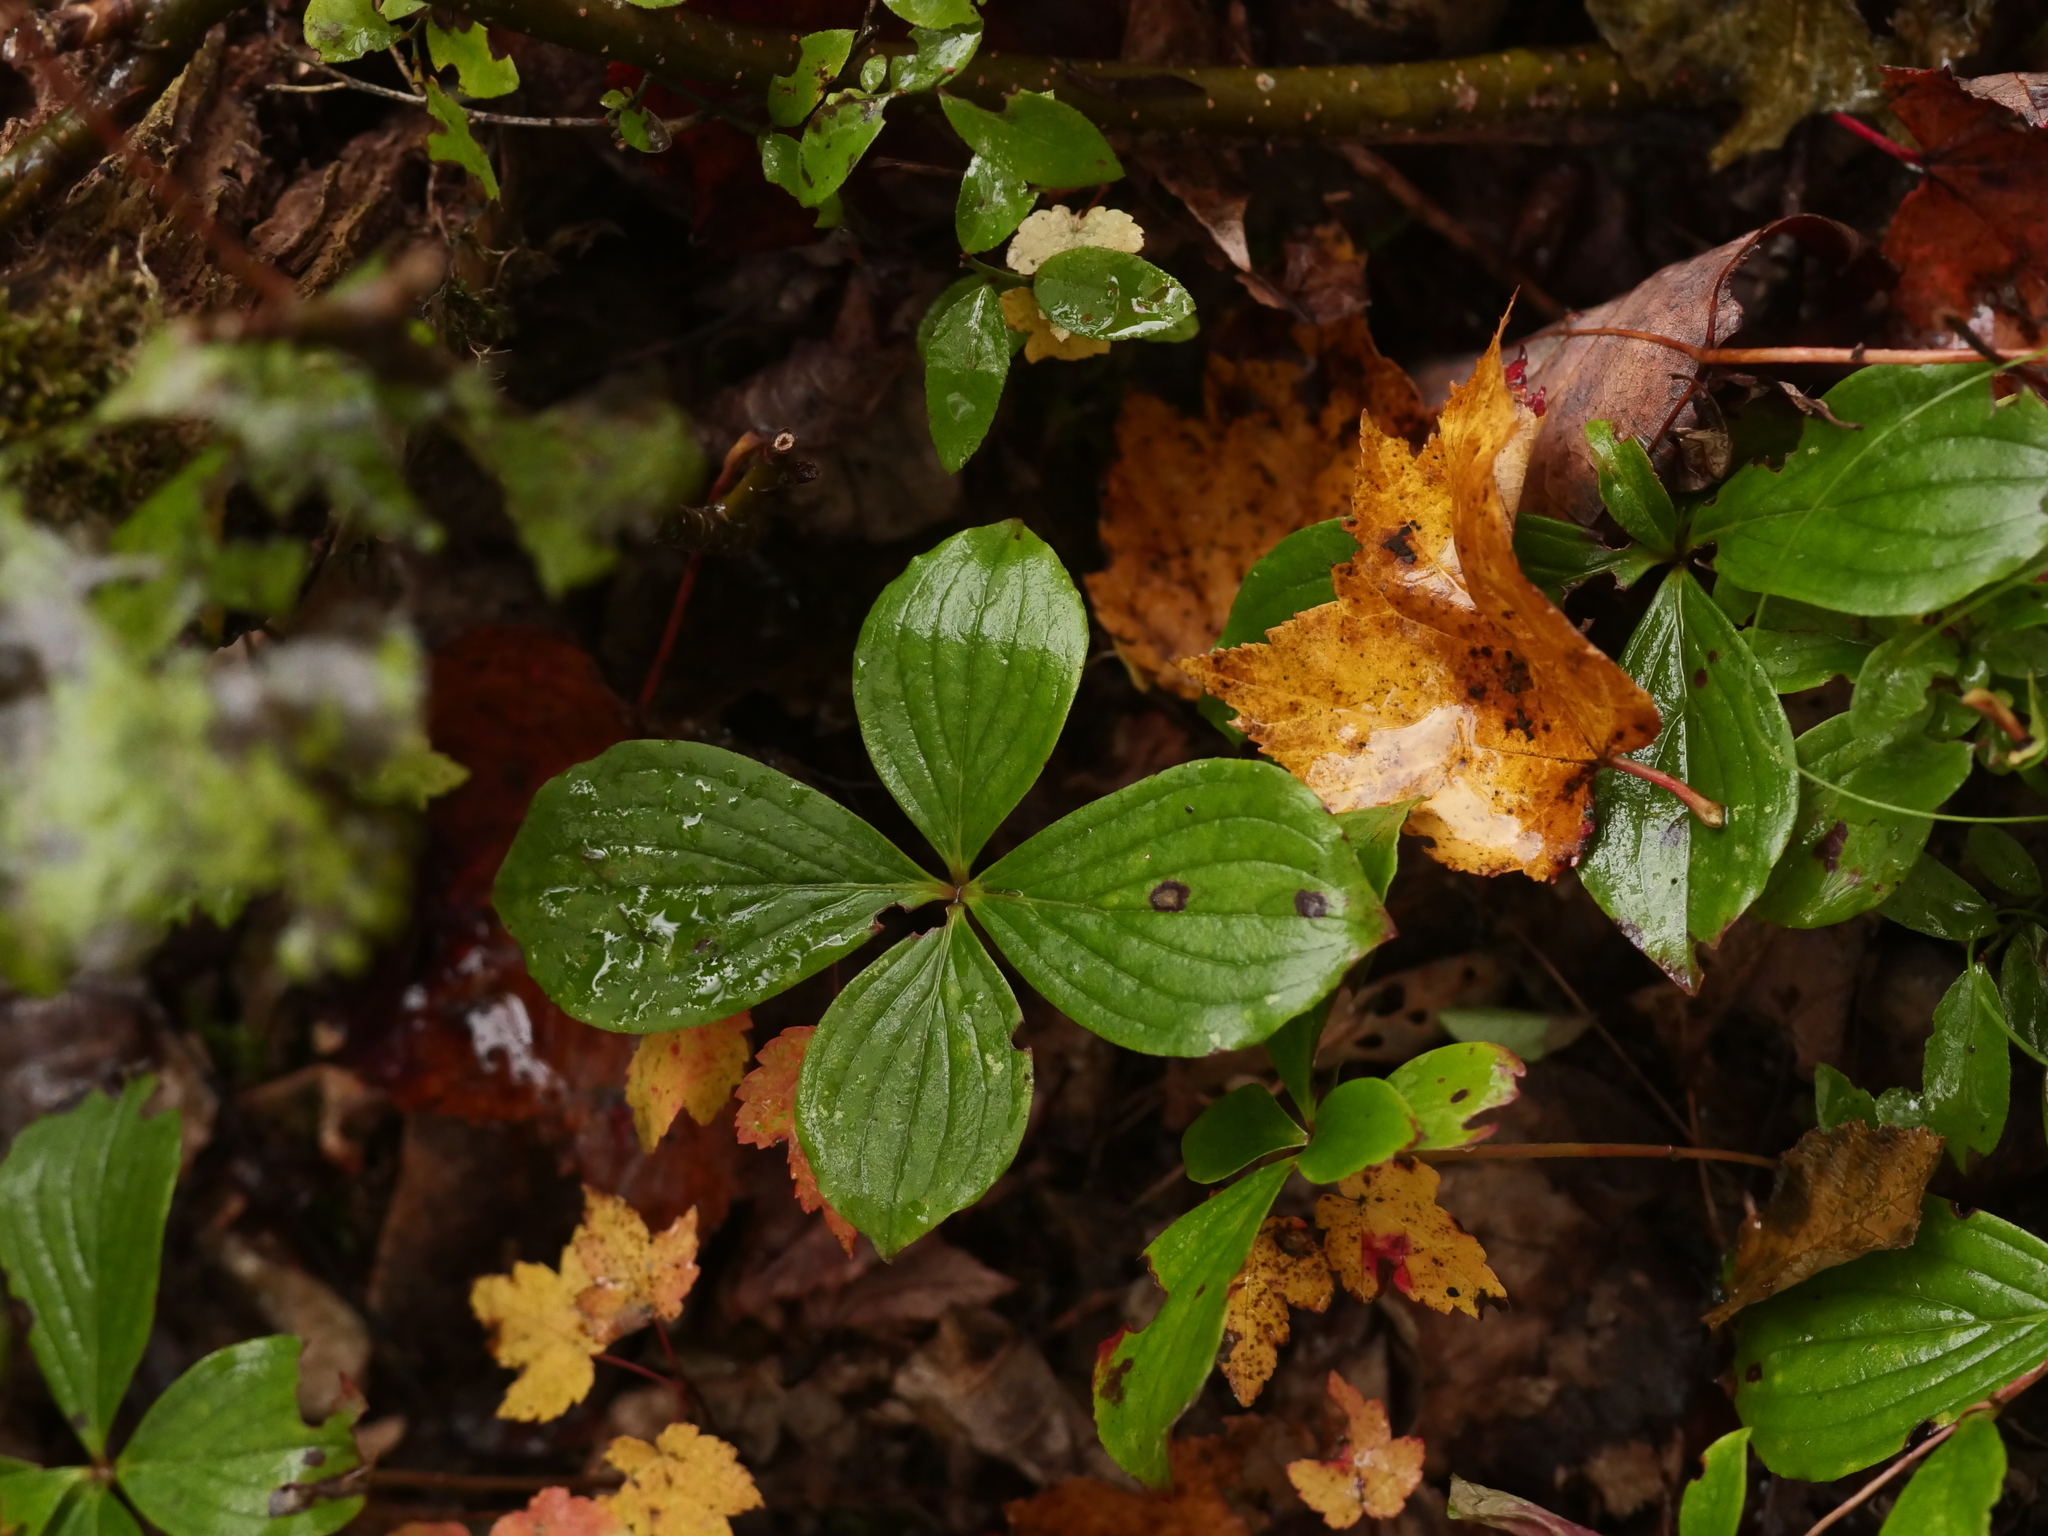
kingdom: Plantae
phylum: Tracheophyta
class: Magnoliopsida
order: Cornales
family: Cornaceae
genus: Cornus
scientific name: Cornus canadensis
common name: Creeping dogwood
